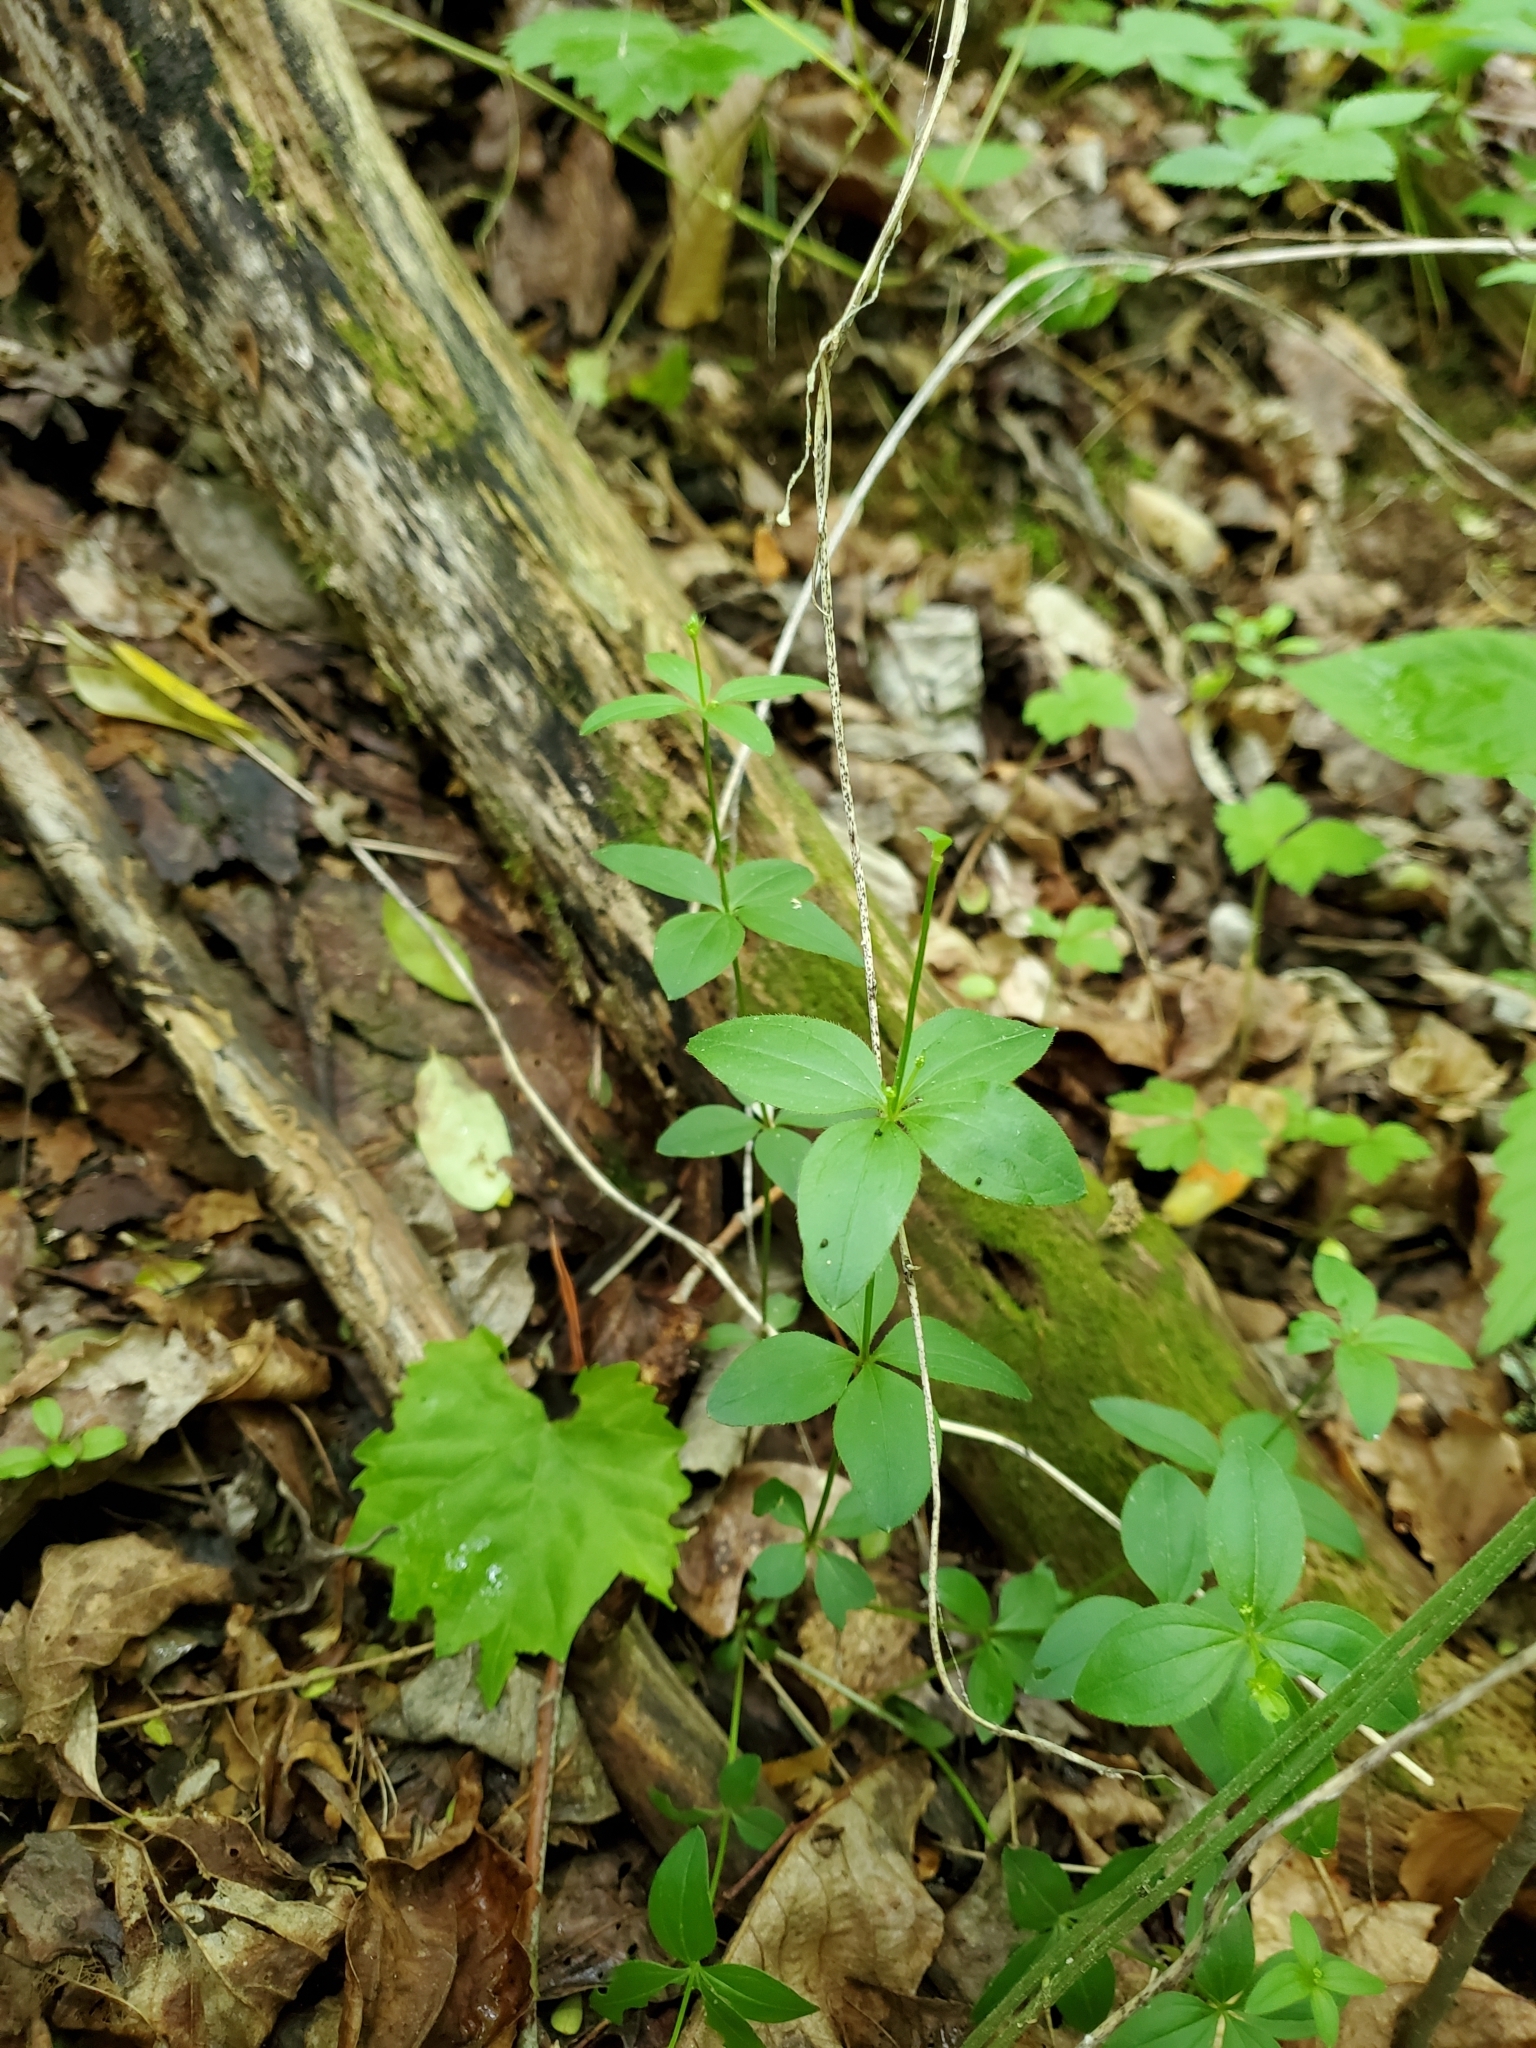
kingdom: Plantae
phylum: Tracheophyta
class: Magnoliopsida
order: Gentianales
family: Rubiaceae
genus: Galium
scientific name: Galium circaezans
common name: Forest bedstraw
